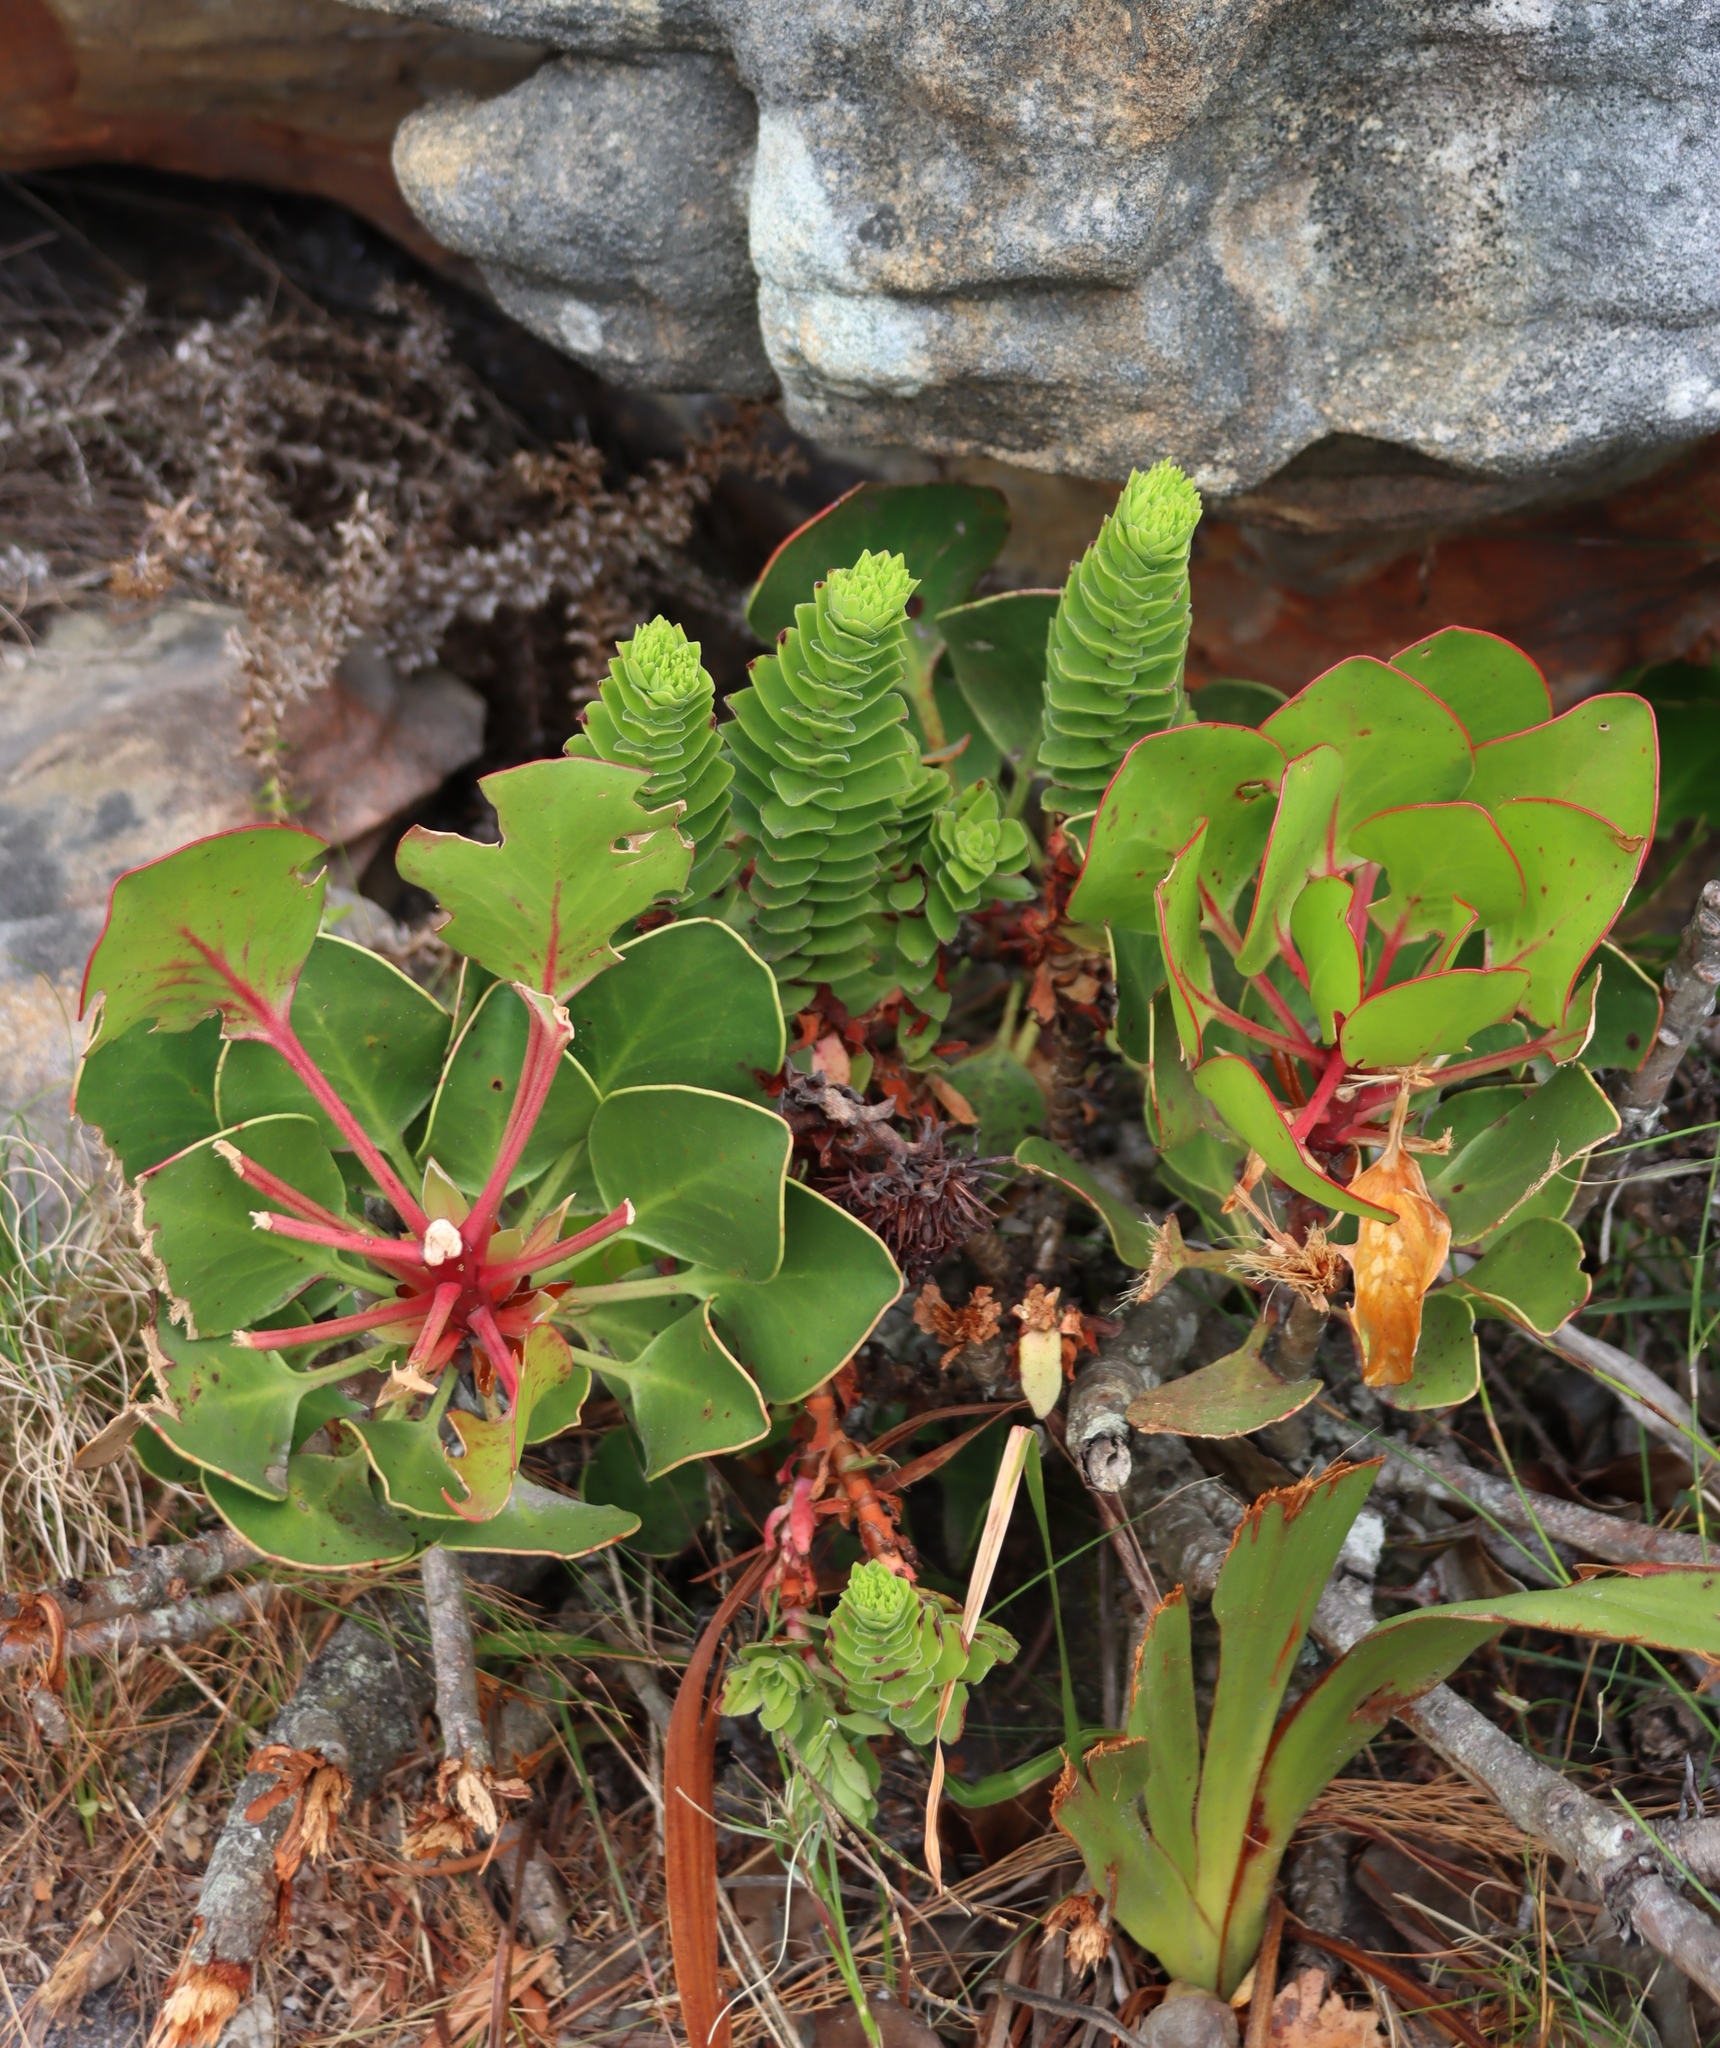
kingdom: Plantae
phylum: Tracheophyta
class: Magnoliopsida
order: Saxifragales
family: Crassulaceae
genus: Crassula
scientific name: Crassula coccinea
